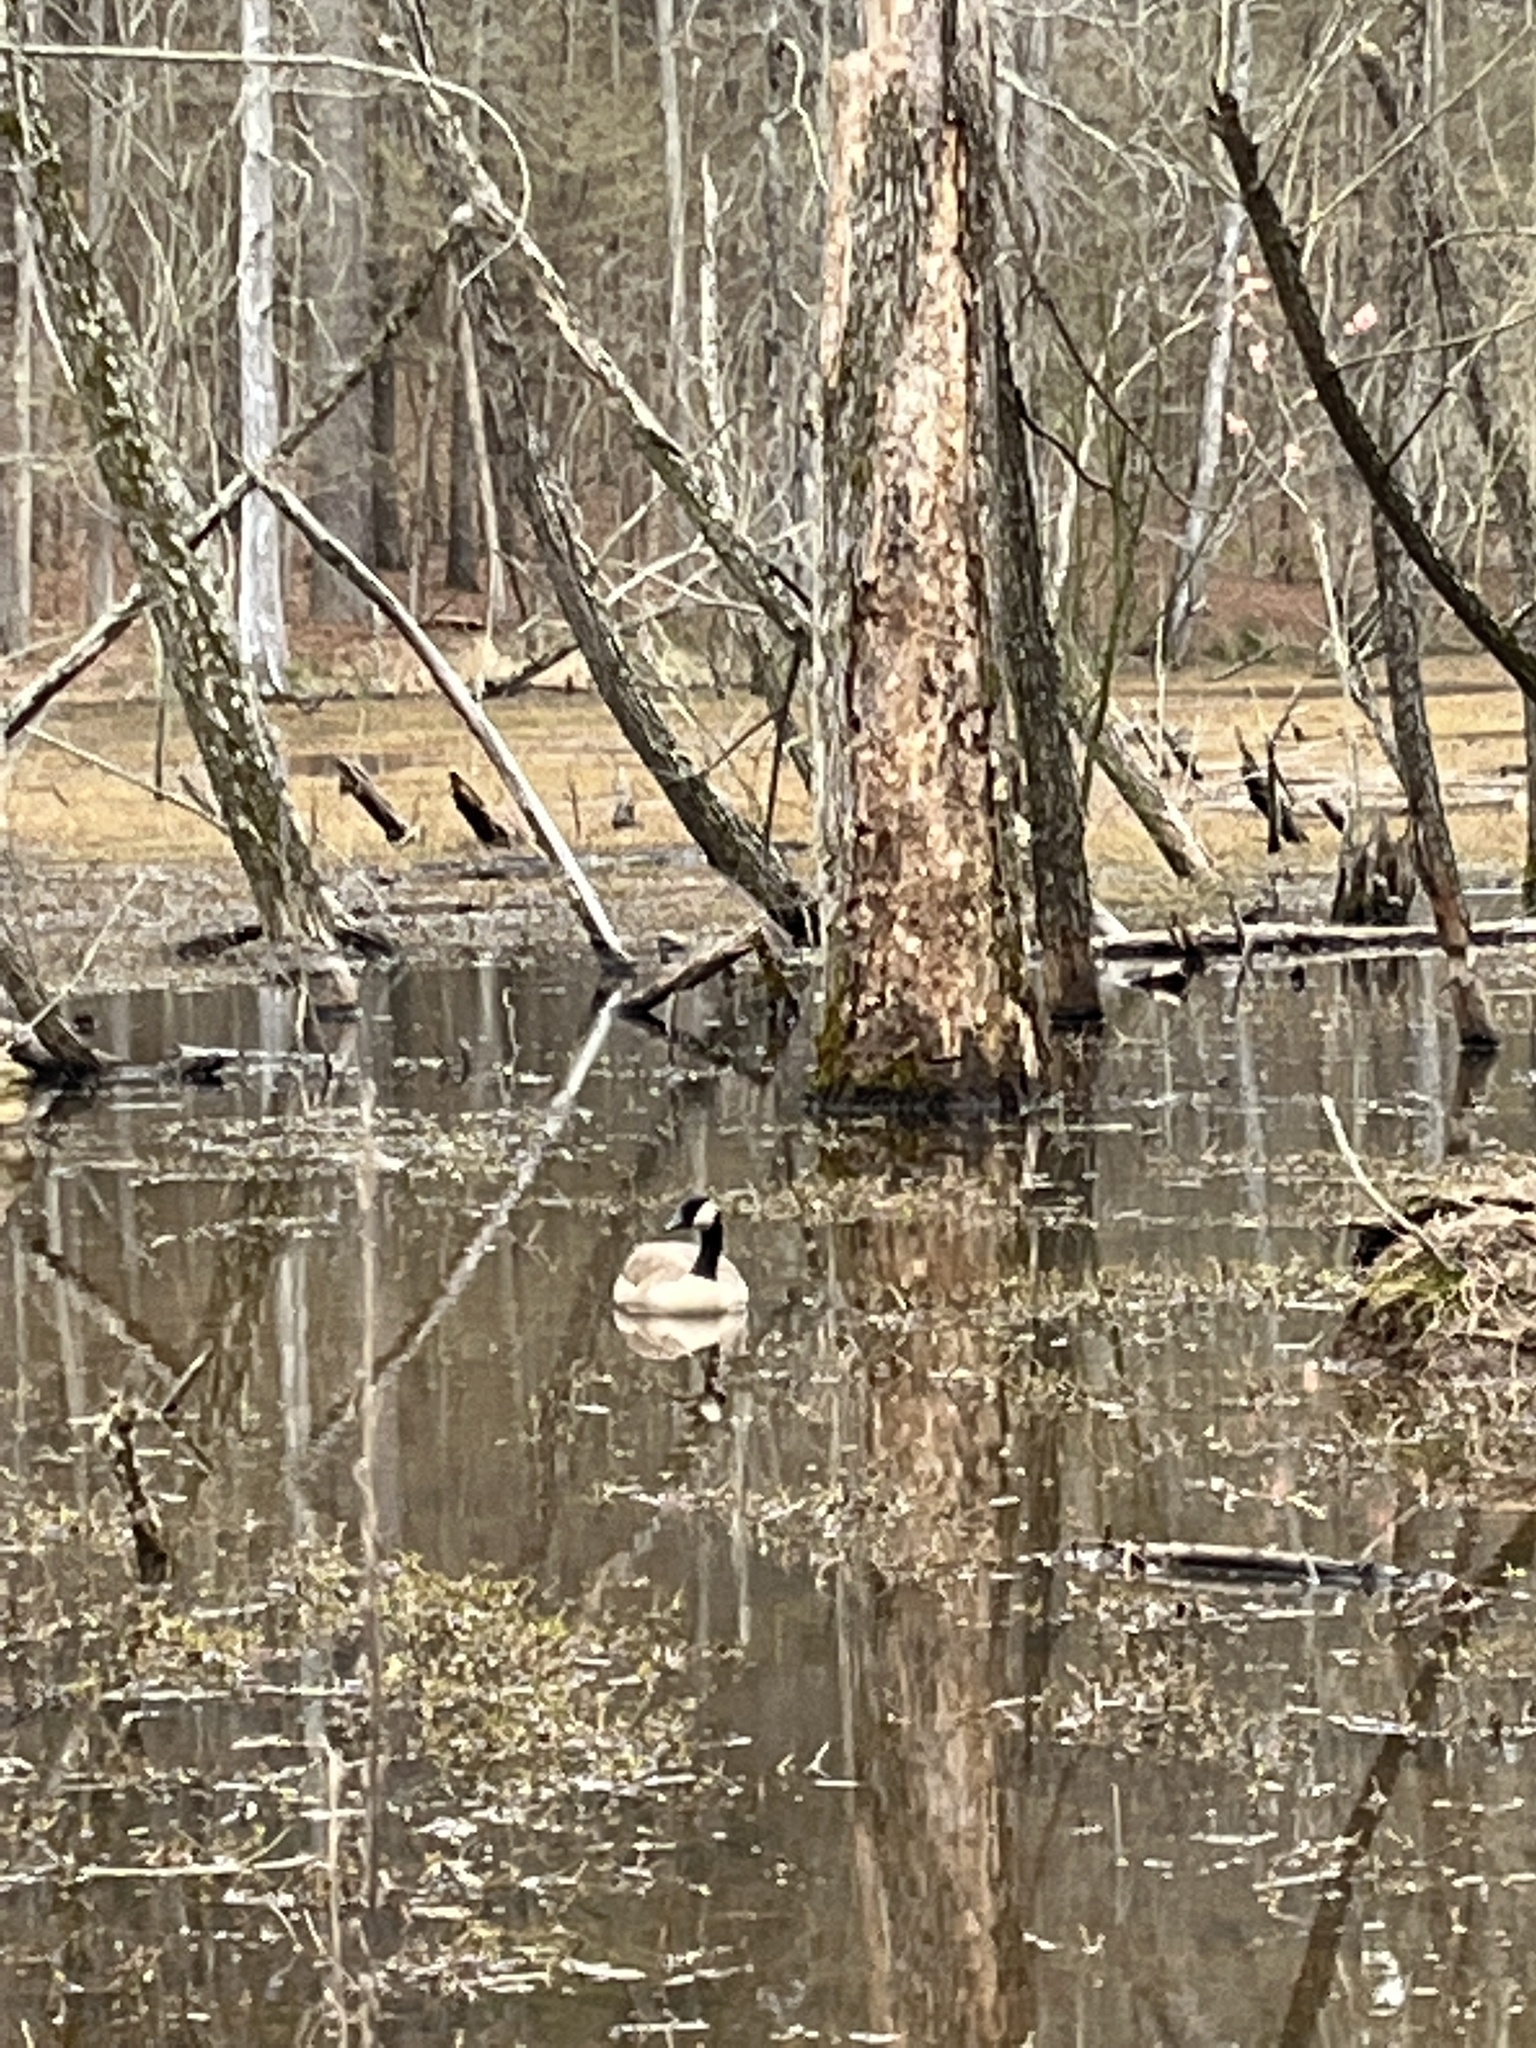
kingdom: Animalia
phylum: Chordata
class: Aves
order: Anseriformes
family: Anatidae
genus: Branta
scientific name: Branta canadensis
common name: Canada goose
